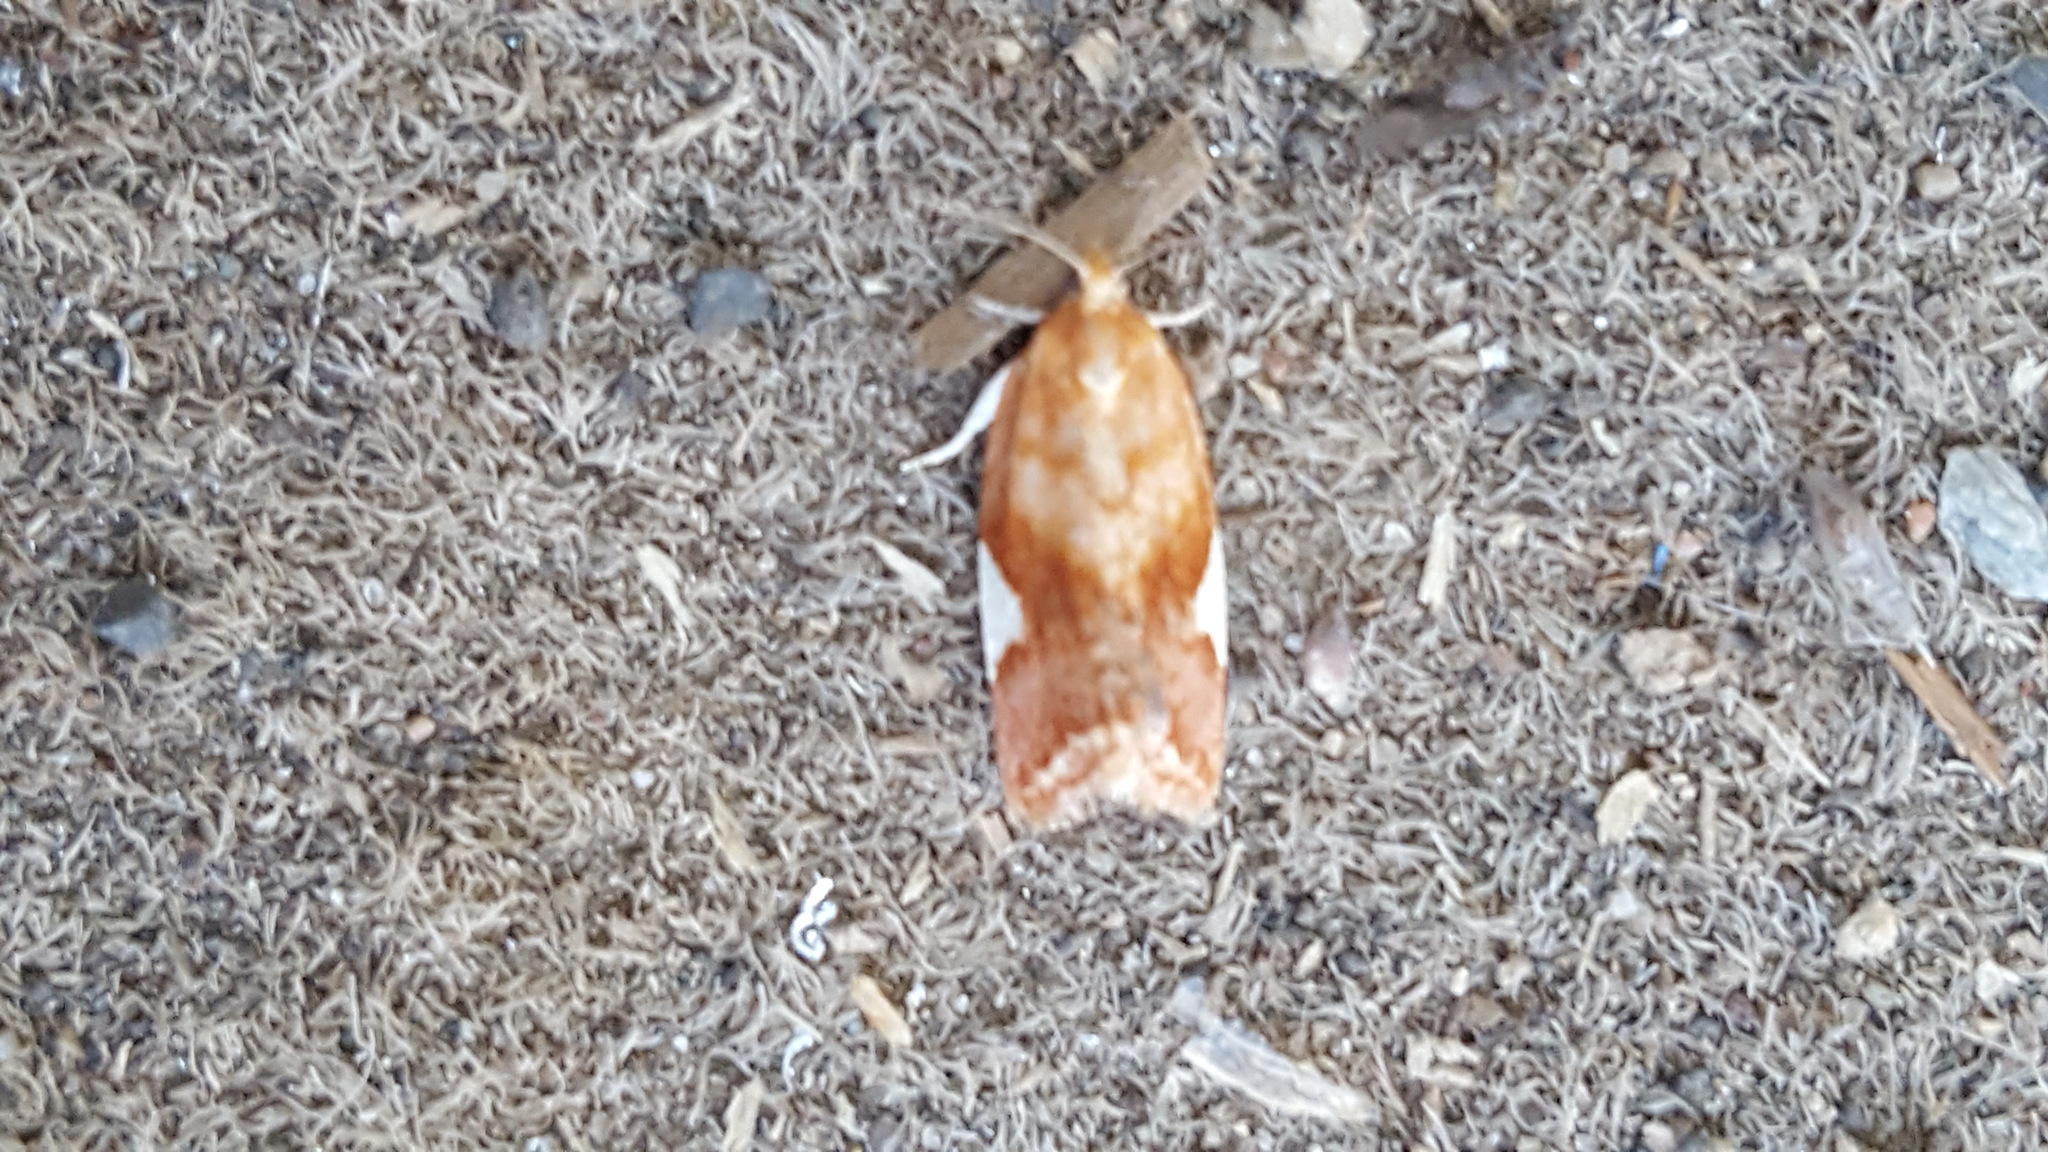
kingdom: Animalia
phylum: Arthropoda
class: Insecta
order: Lepidoptera
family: Tortricidae
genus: Clepsis
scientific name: Clepsis persicana
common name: White triangle tortrix
